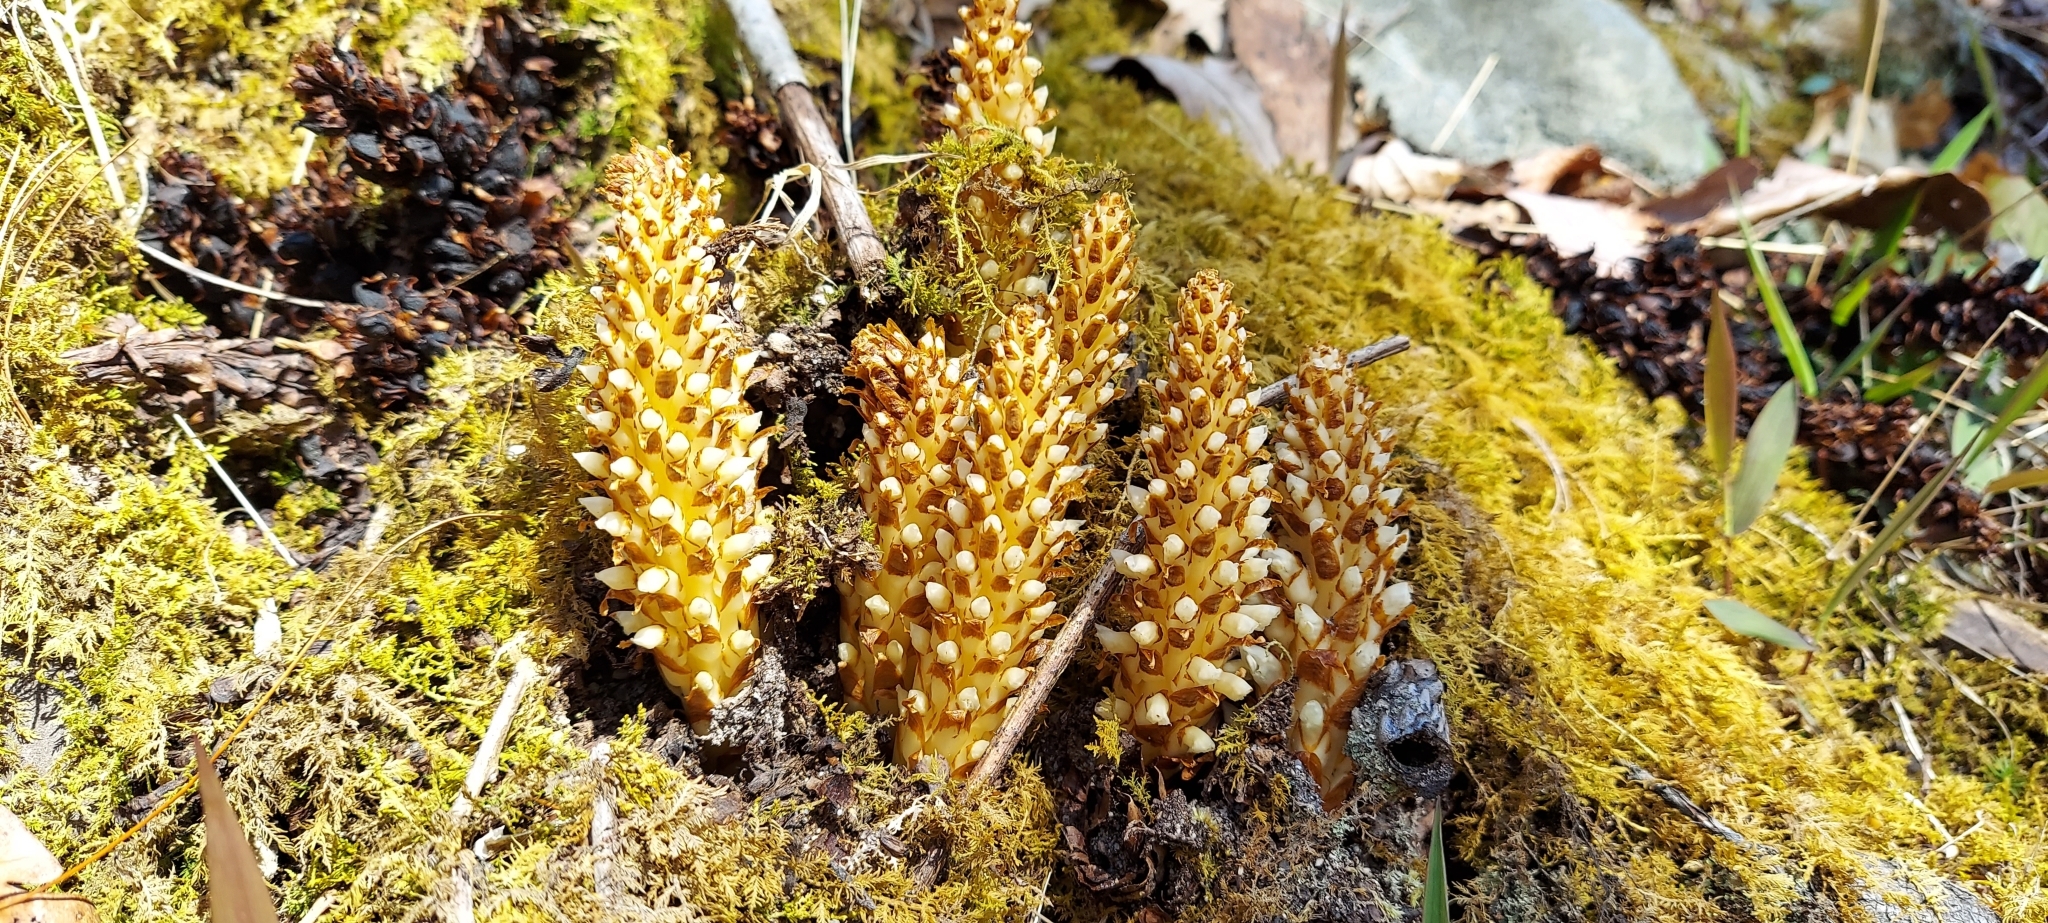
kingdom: Plantae
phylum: Tracheophyta
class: Magnoliopsida
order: Lamiales
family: Orobanchaceae
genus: Conopholis
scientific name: Conopholis americana
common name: American cancer-root
